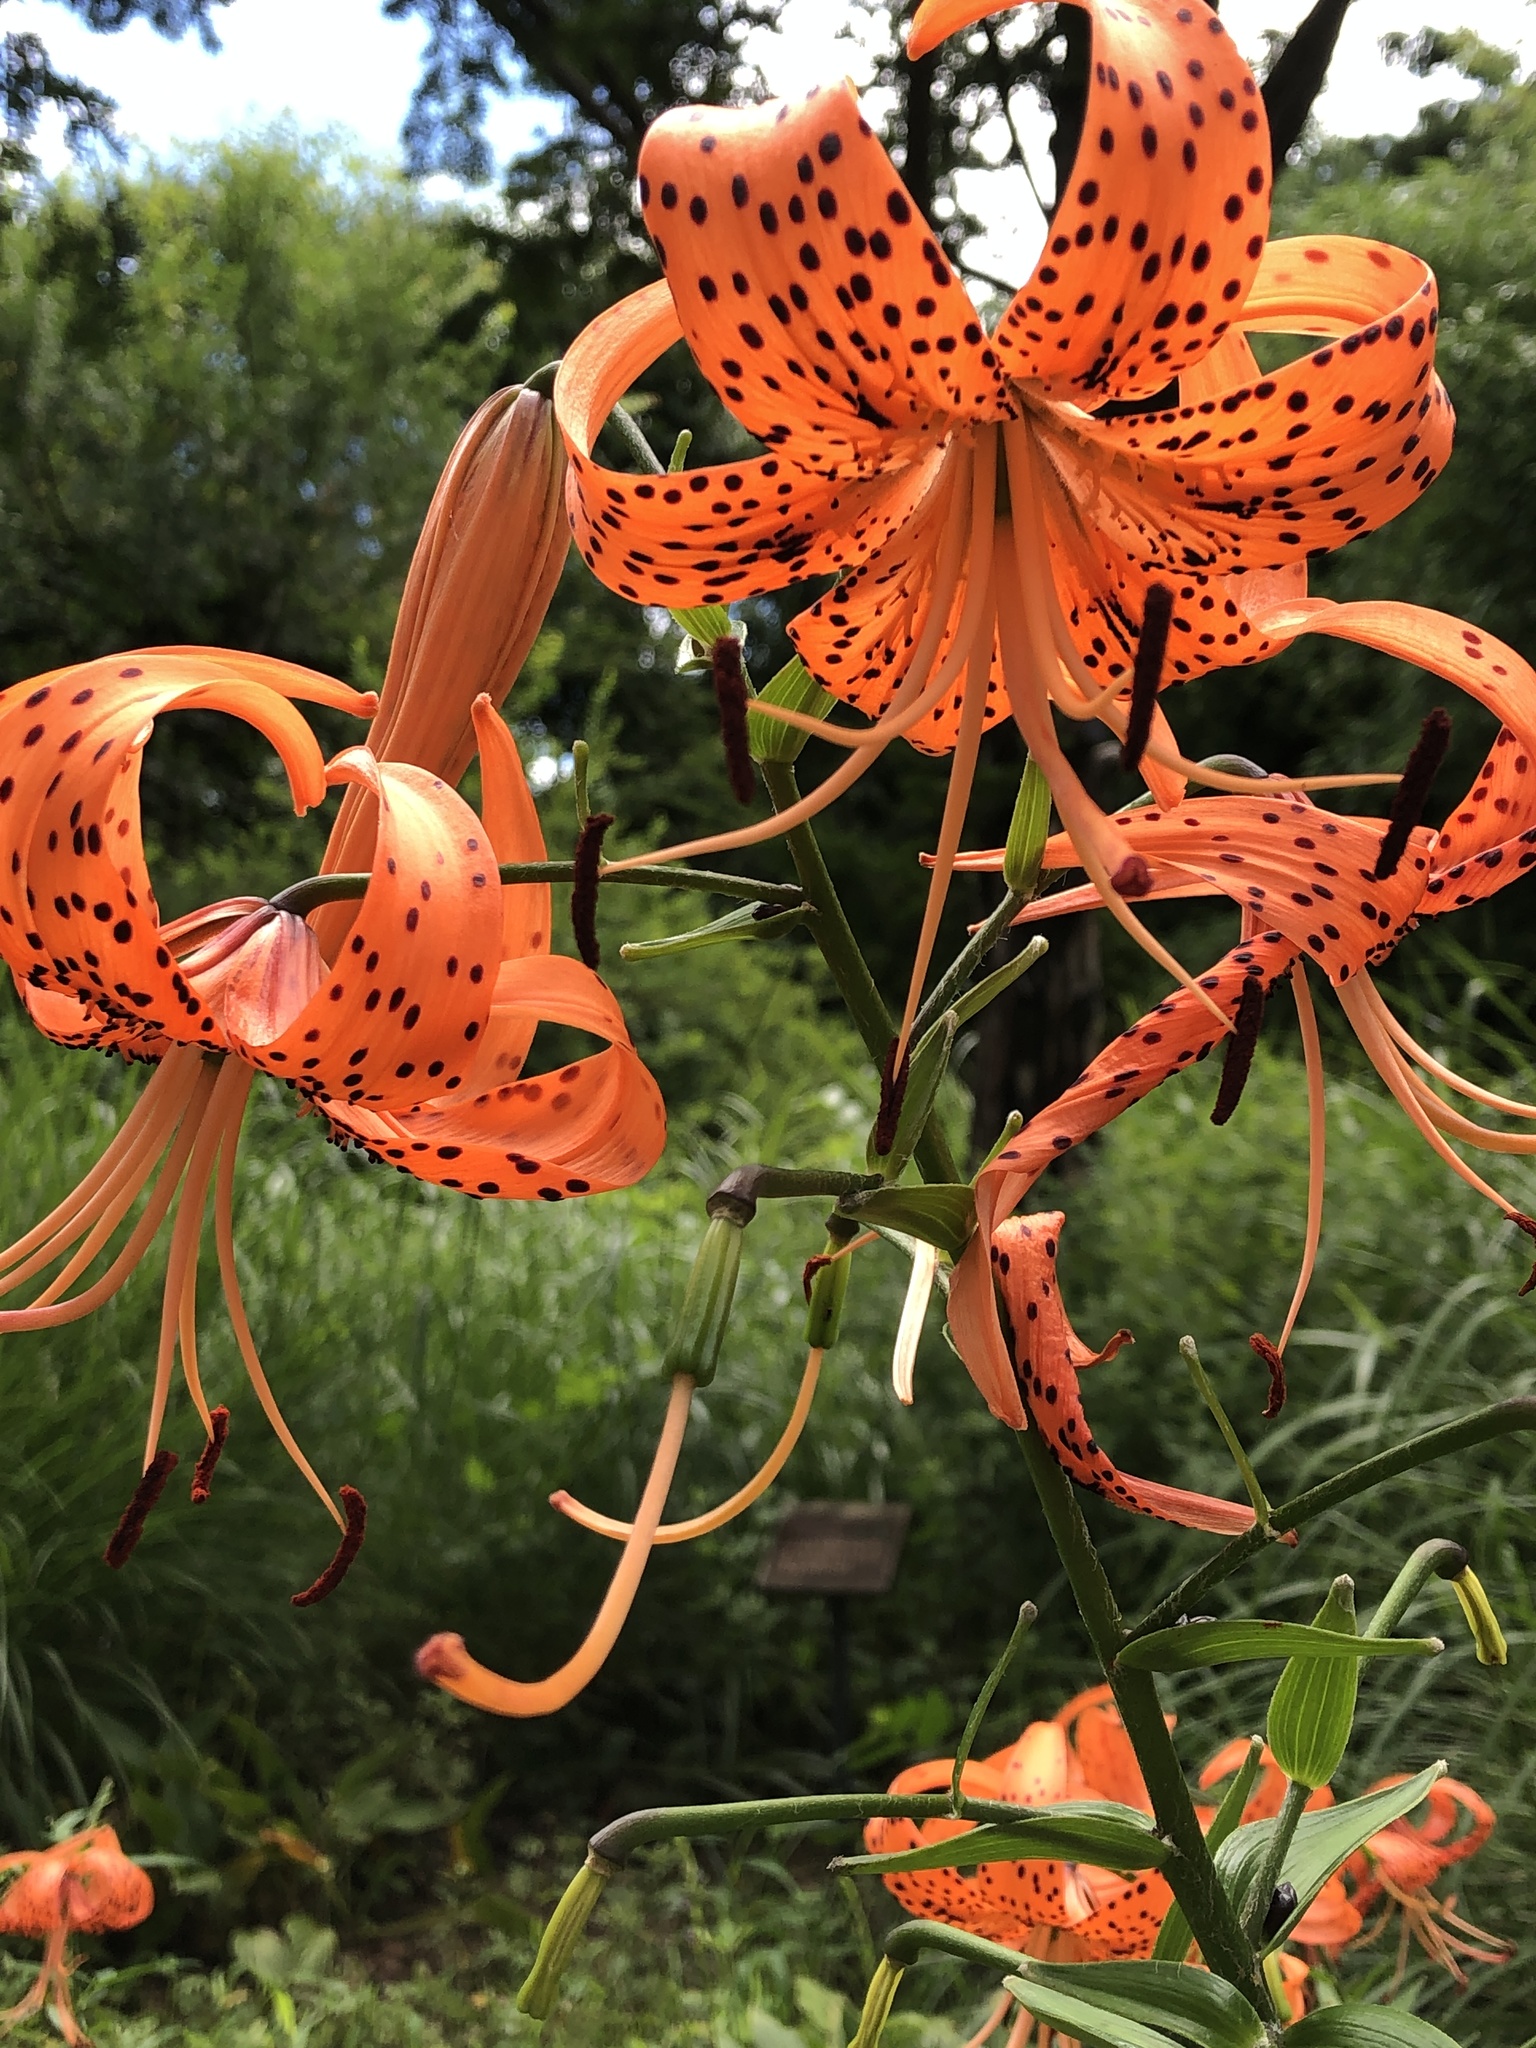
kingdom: Plantae
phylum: Tracheophyta
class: Liliopsida
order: Liliales
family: Liliaceae
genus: Lilium
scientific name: Lilium lancifolium
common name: Tiger lily
